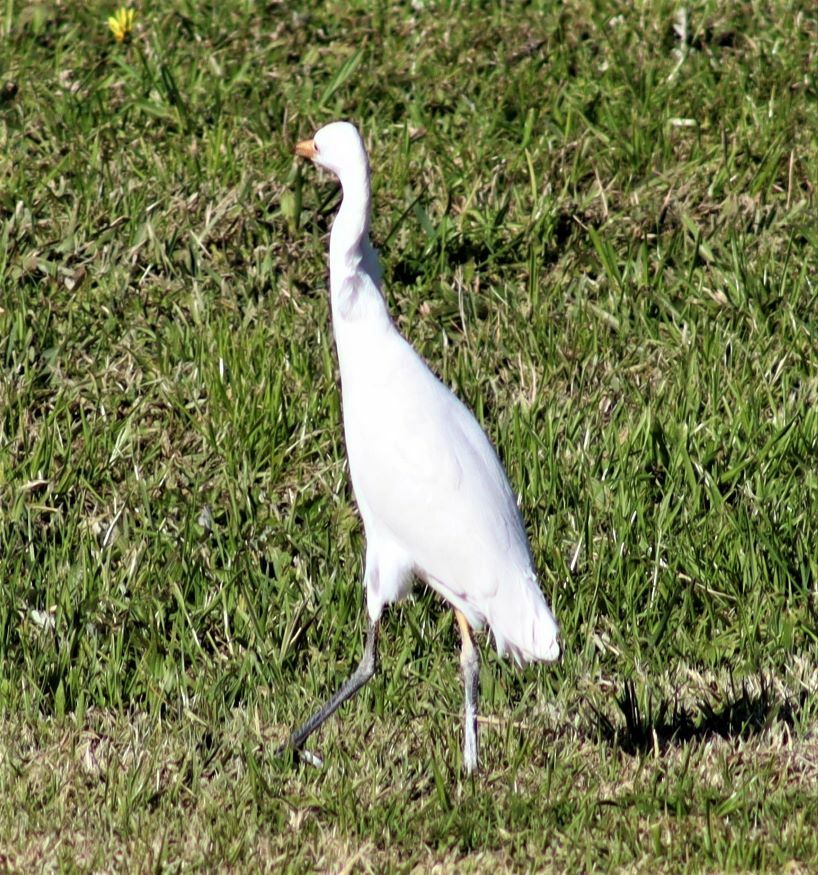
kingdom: Animalia
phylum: Chordata
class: Aves
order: Pelecaniformes
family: Ardeidae
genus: Bubulcus
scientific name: Bubulcus ibis
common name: Cattle egret
